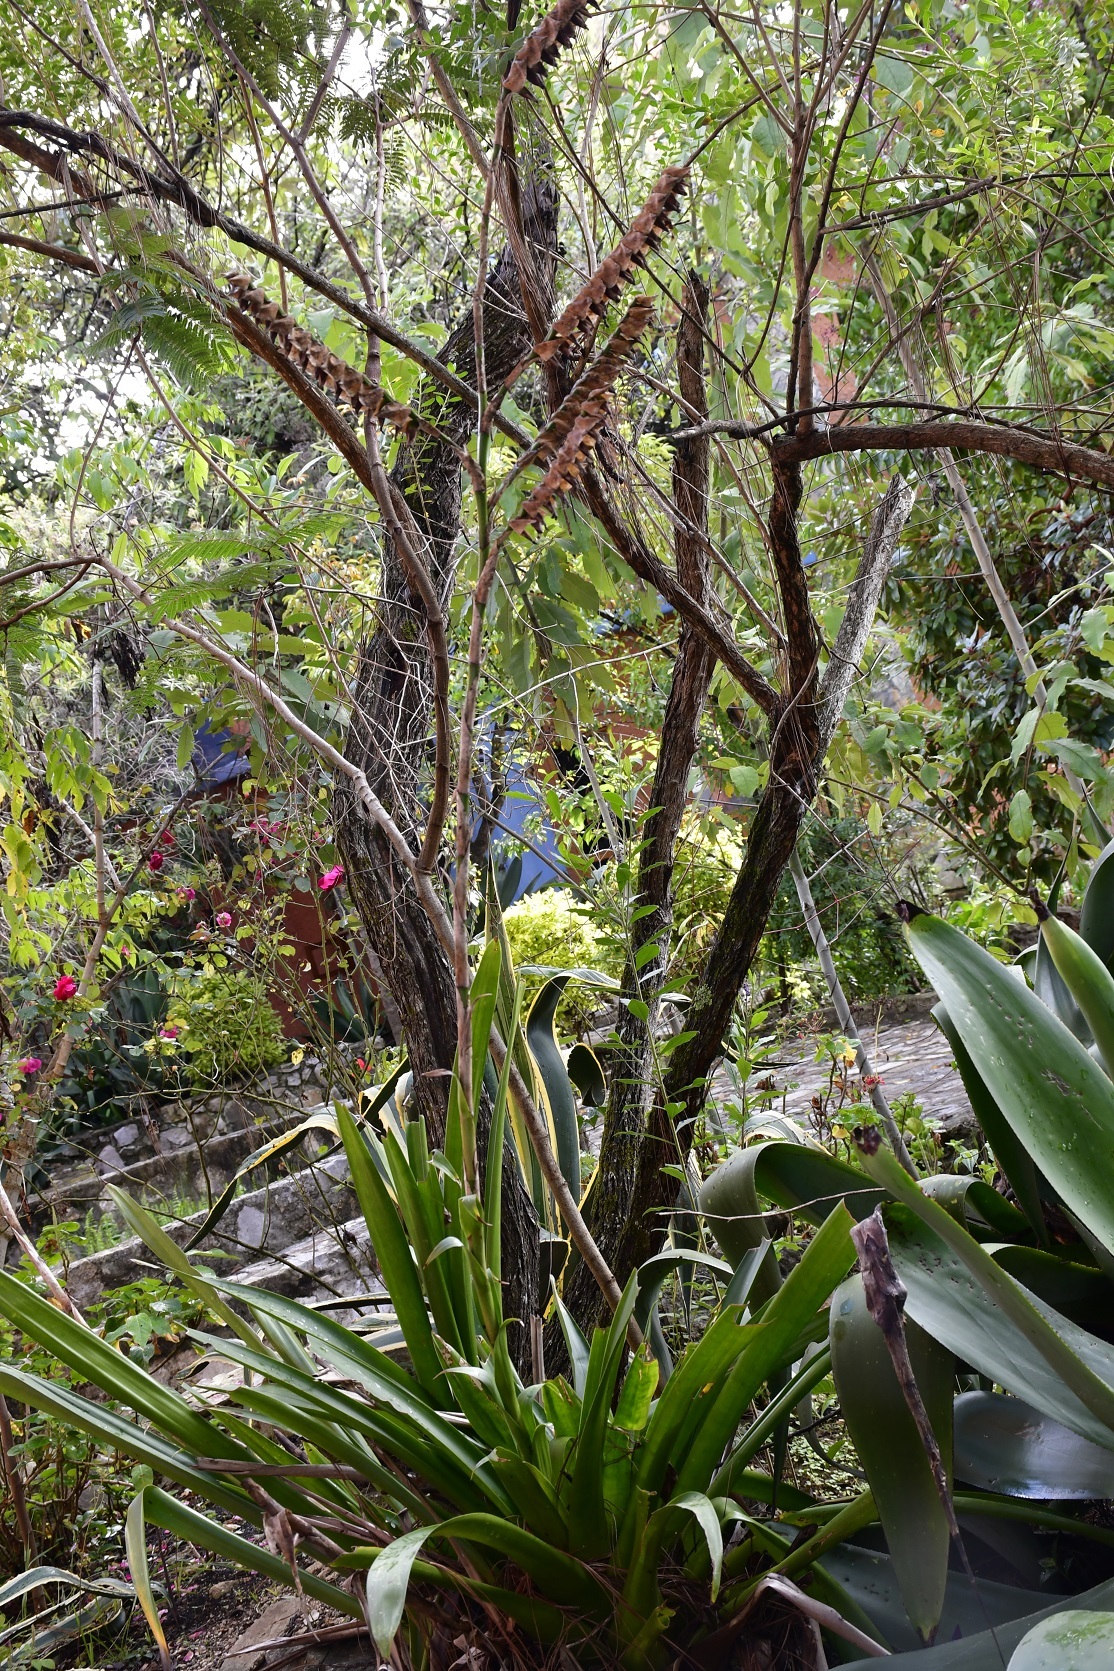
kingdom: Plantae
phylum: Tracheophyta
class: Liliopsida
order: Poales
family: Bromeliaceae
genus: Werauhia
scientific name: Werauhia werckleana
